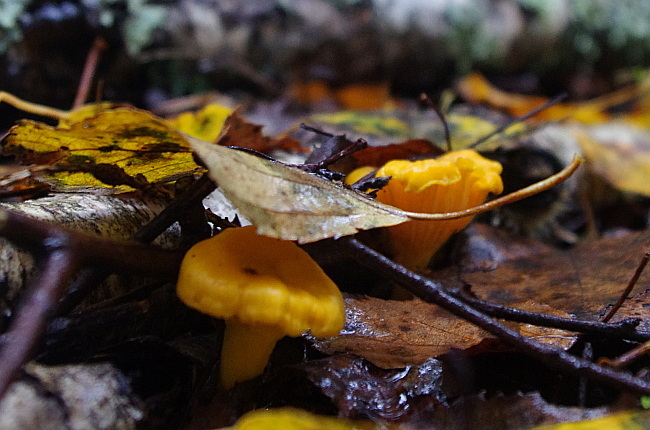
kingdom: Fungi
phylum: Basidiomycota
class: Agaricomycetes
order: Cantharellales
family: Hydnaceae
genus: Cantharellus
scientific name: Cantharellus cibarius
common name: Chanterelle
